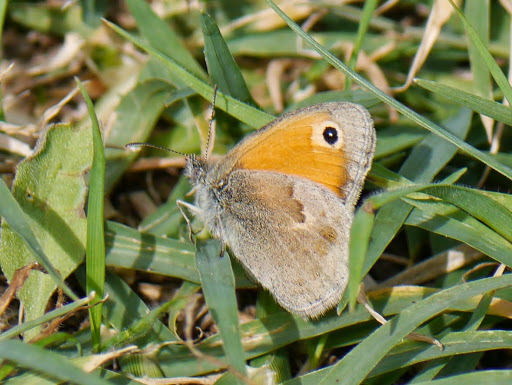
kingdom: Animalia
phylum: Arthropoda
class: Insecta
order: Lepidoptera
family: Nymphalidae
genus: Coenonympha
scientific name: Coenonympha pamphilus
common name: Small heath
